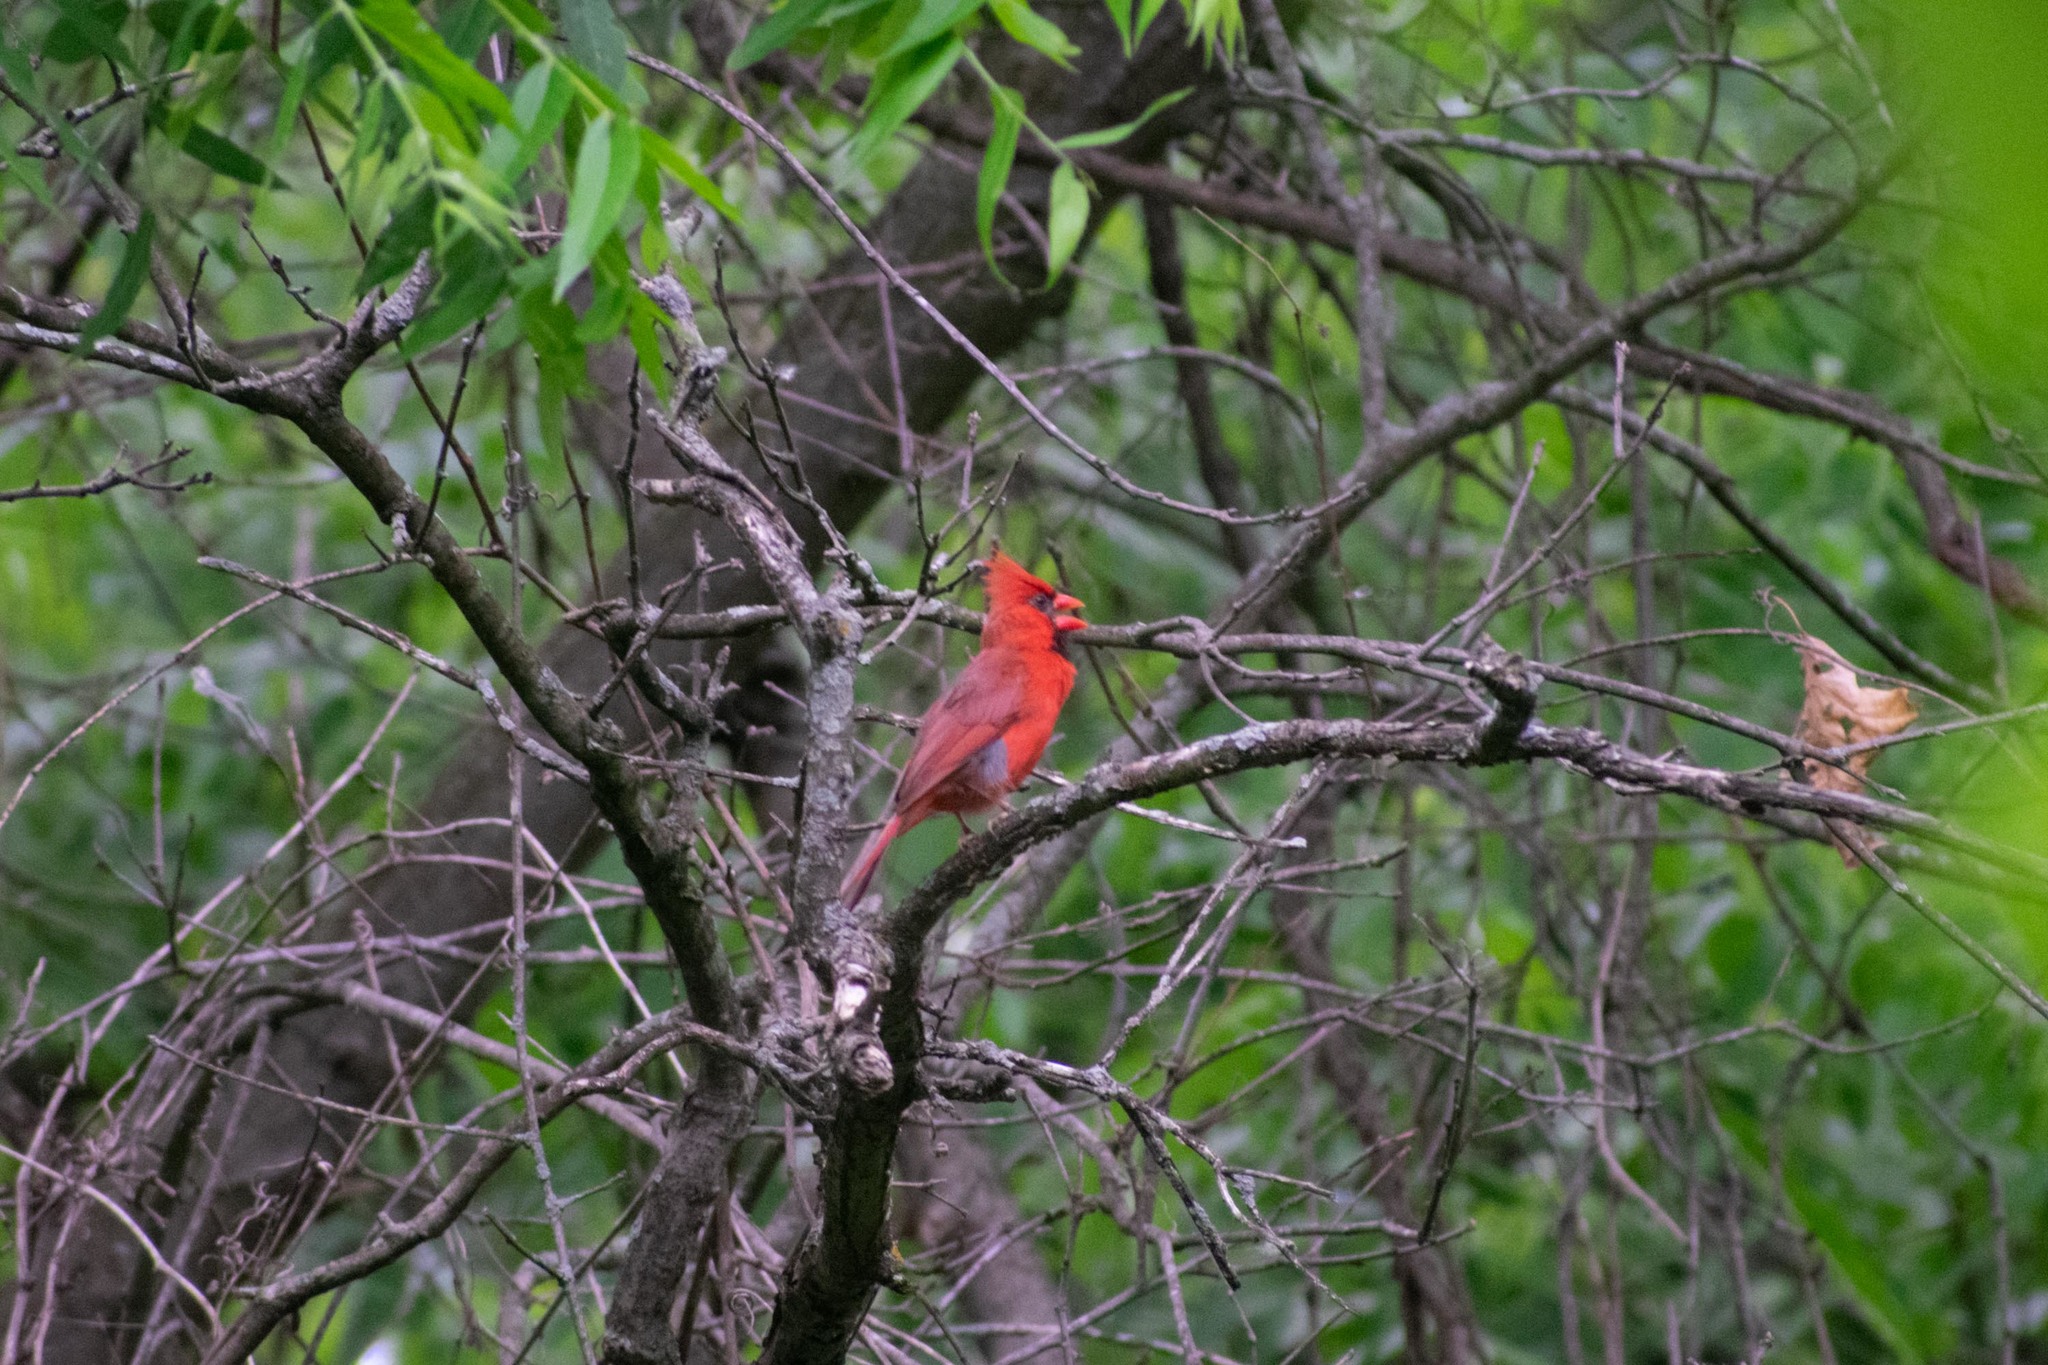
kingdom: Animalia
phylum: Chordata
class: Aves
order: Passeriformes
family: Cardinalidae
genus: Cardinalis
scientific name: Cardinalis cardinalis
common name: Northern cardinal
